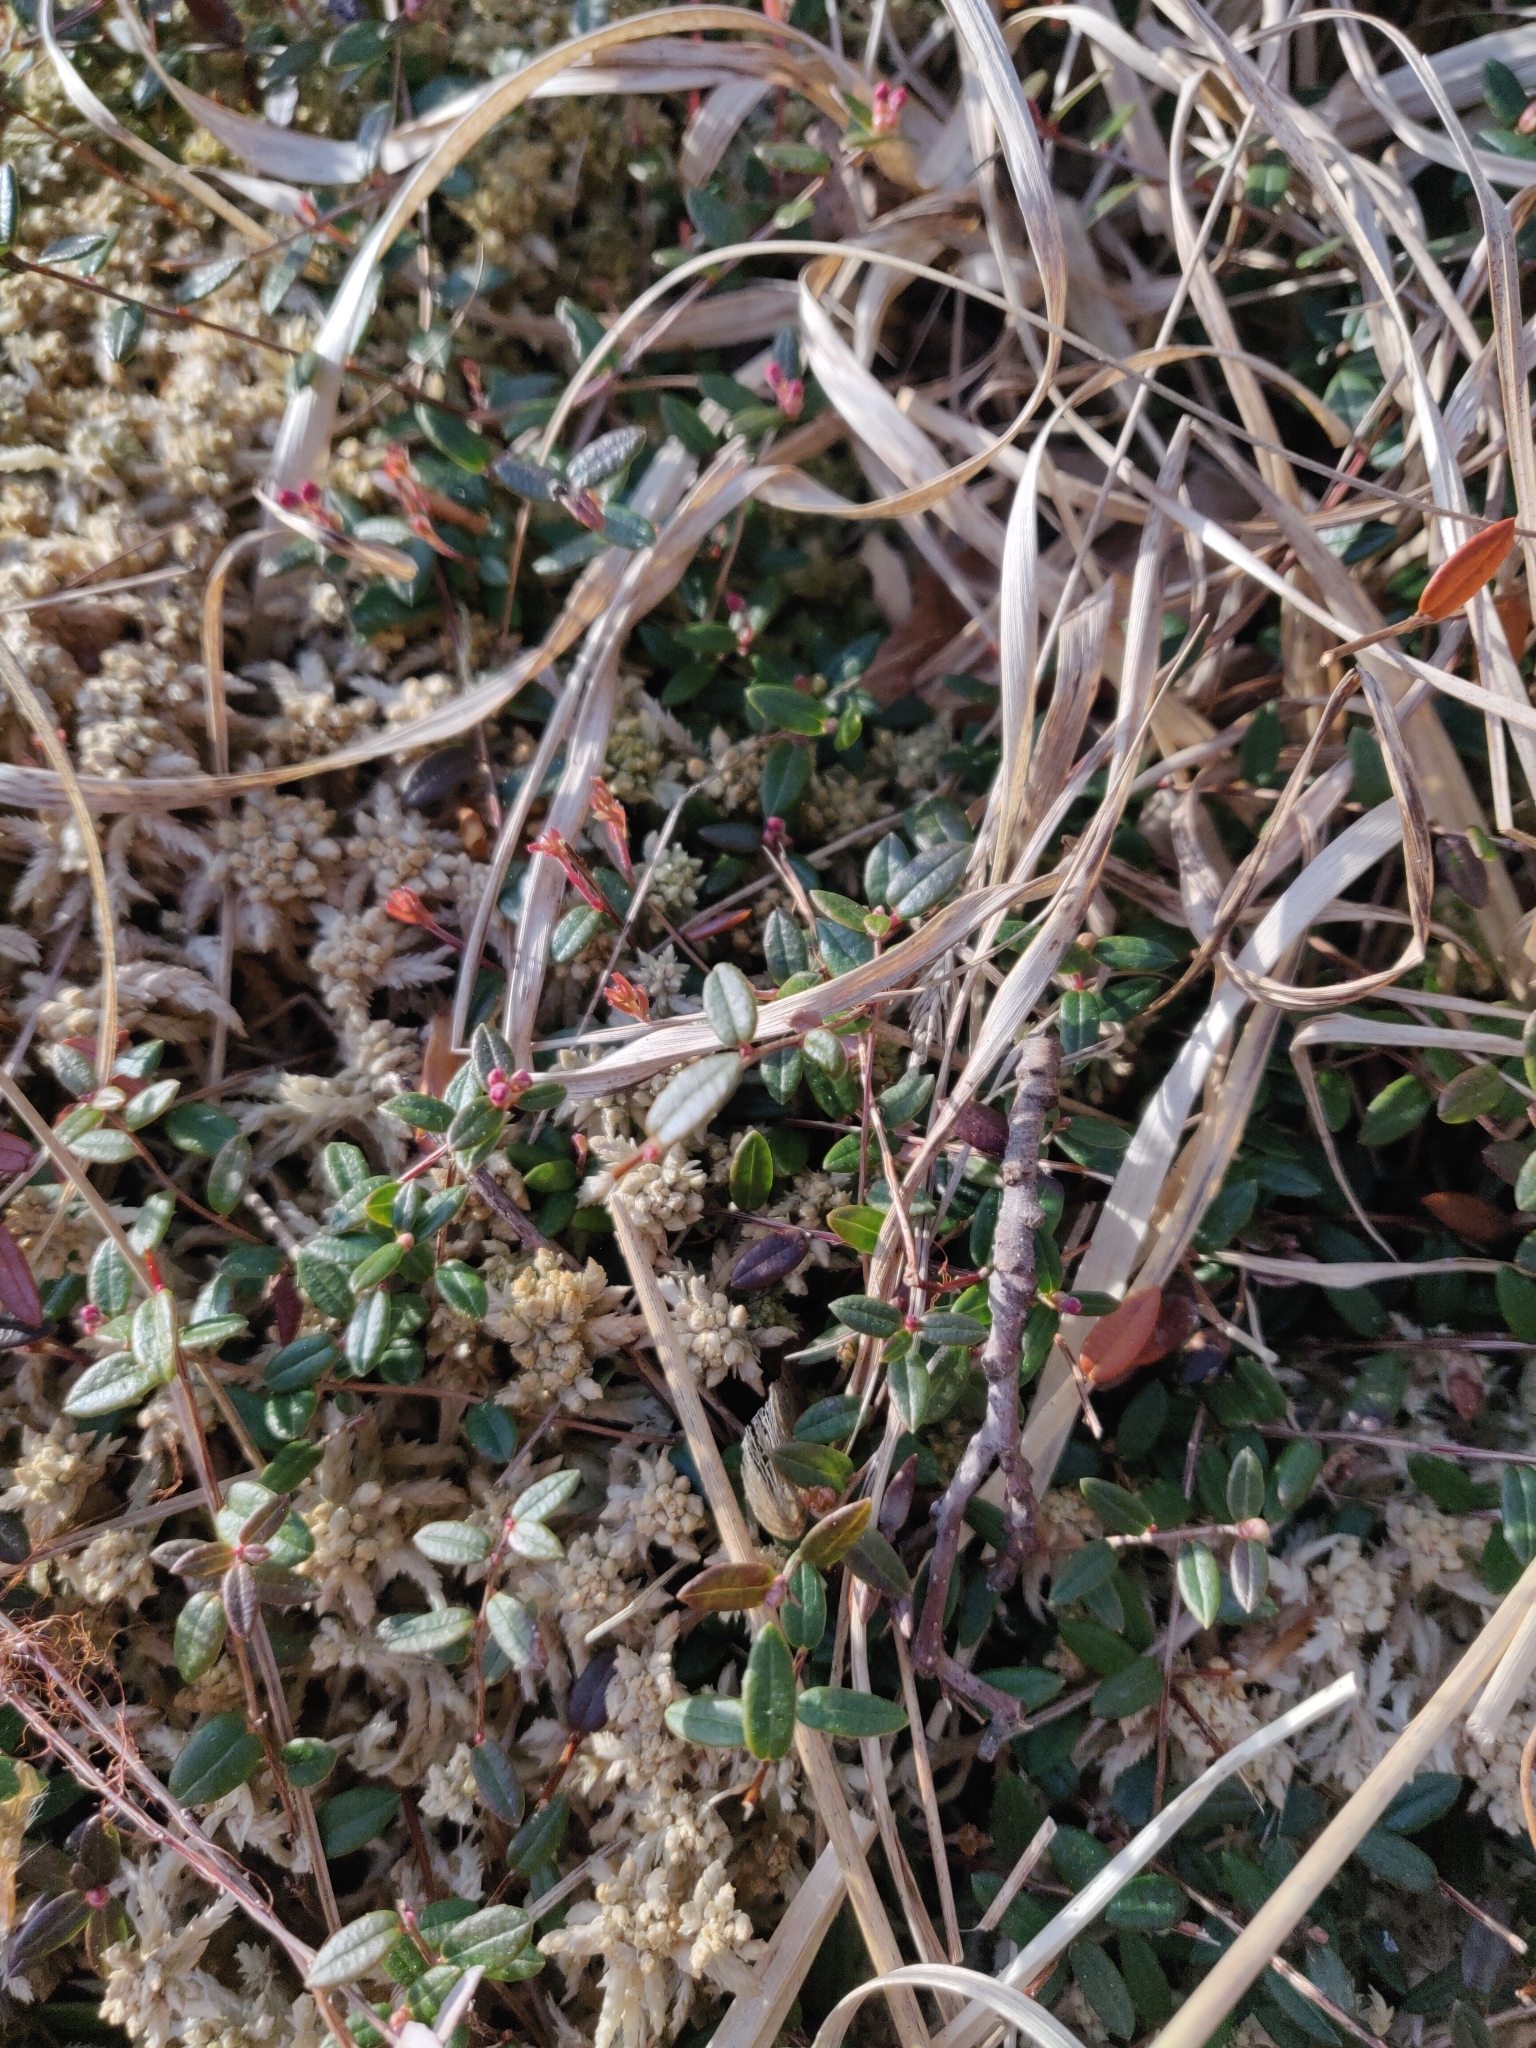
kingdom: Plantae
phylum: Tracheophyta
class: Magnoliopsida
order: Ericales
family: Ericaceae
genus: Vaccinium
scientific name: Vaccinium oxycoccos
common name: Cranberry
